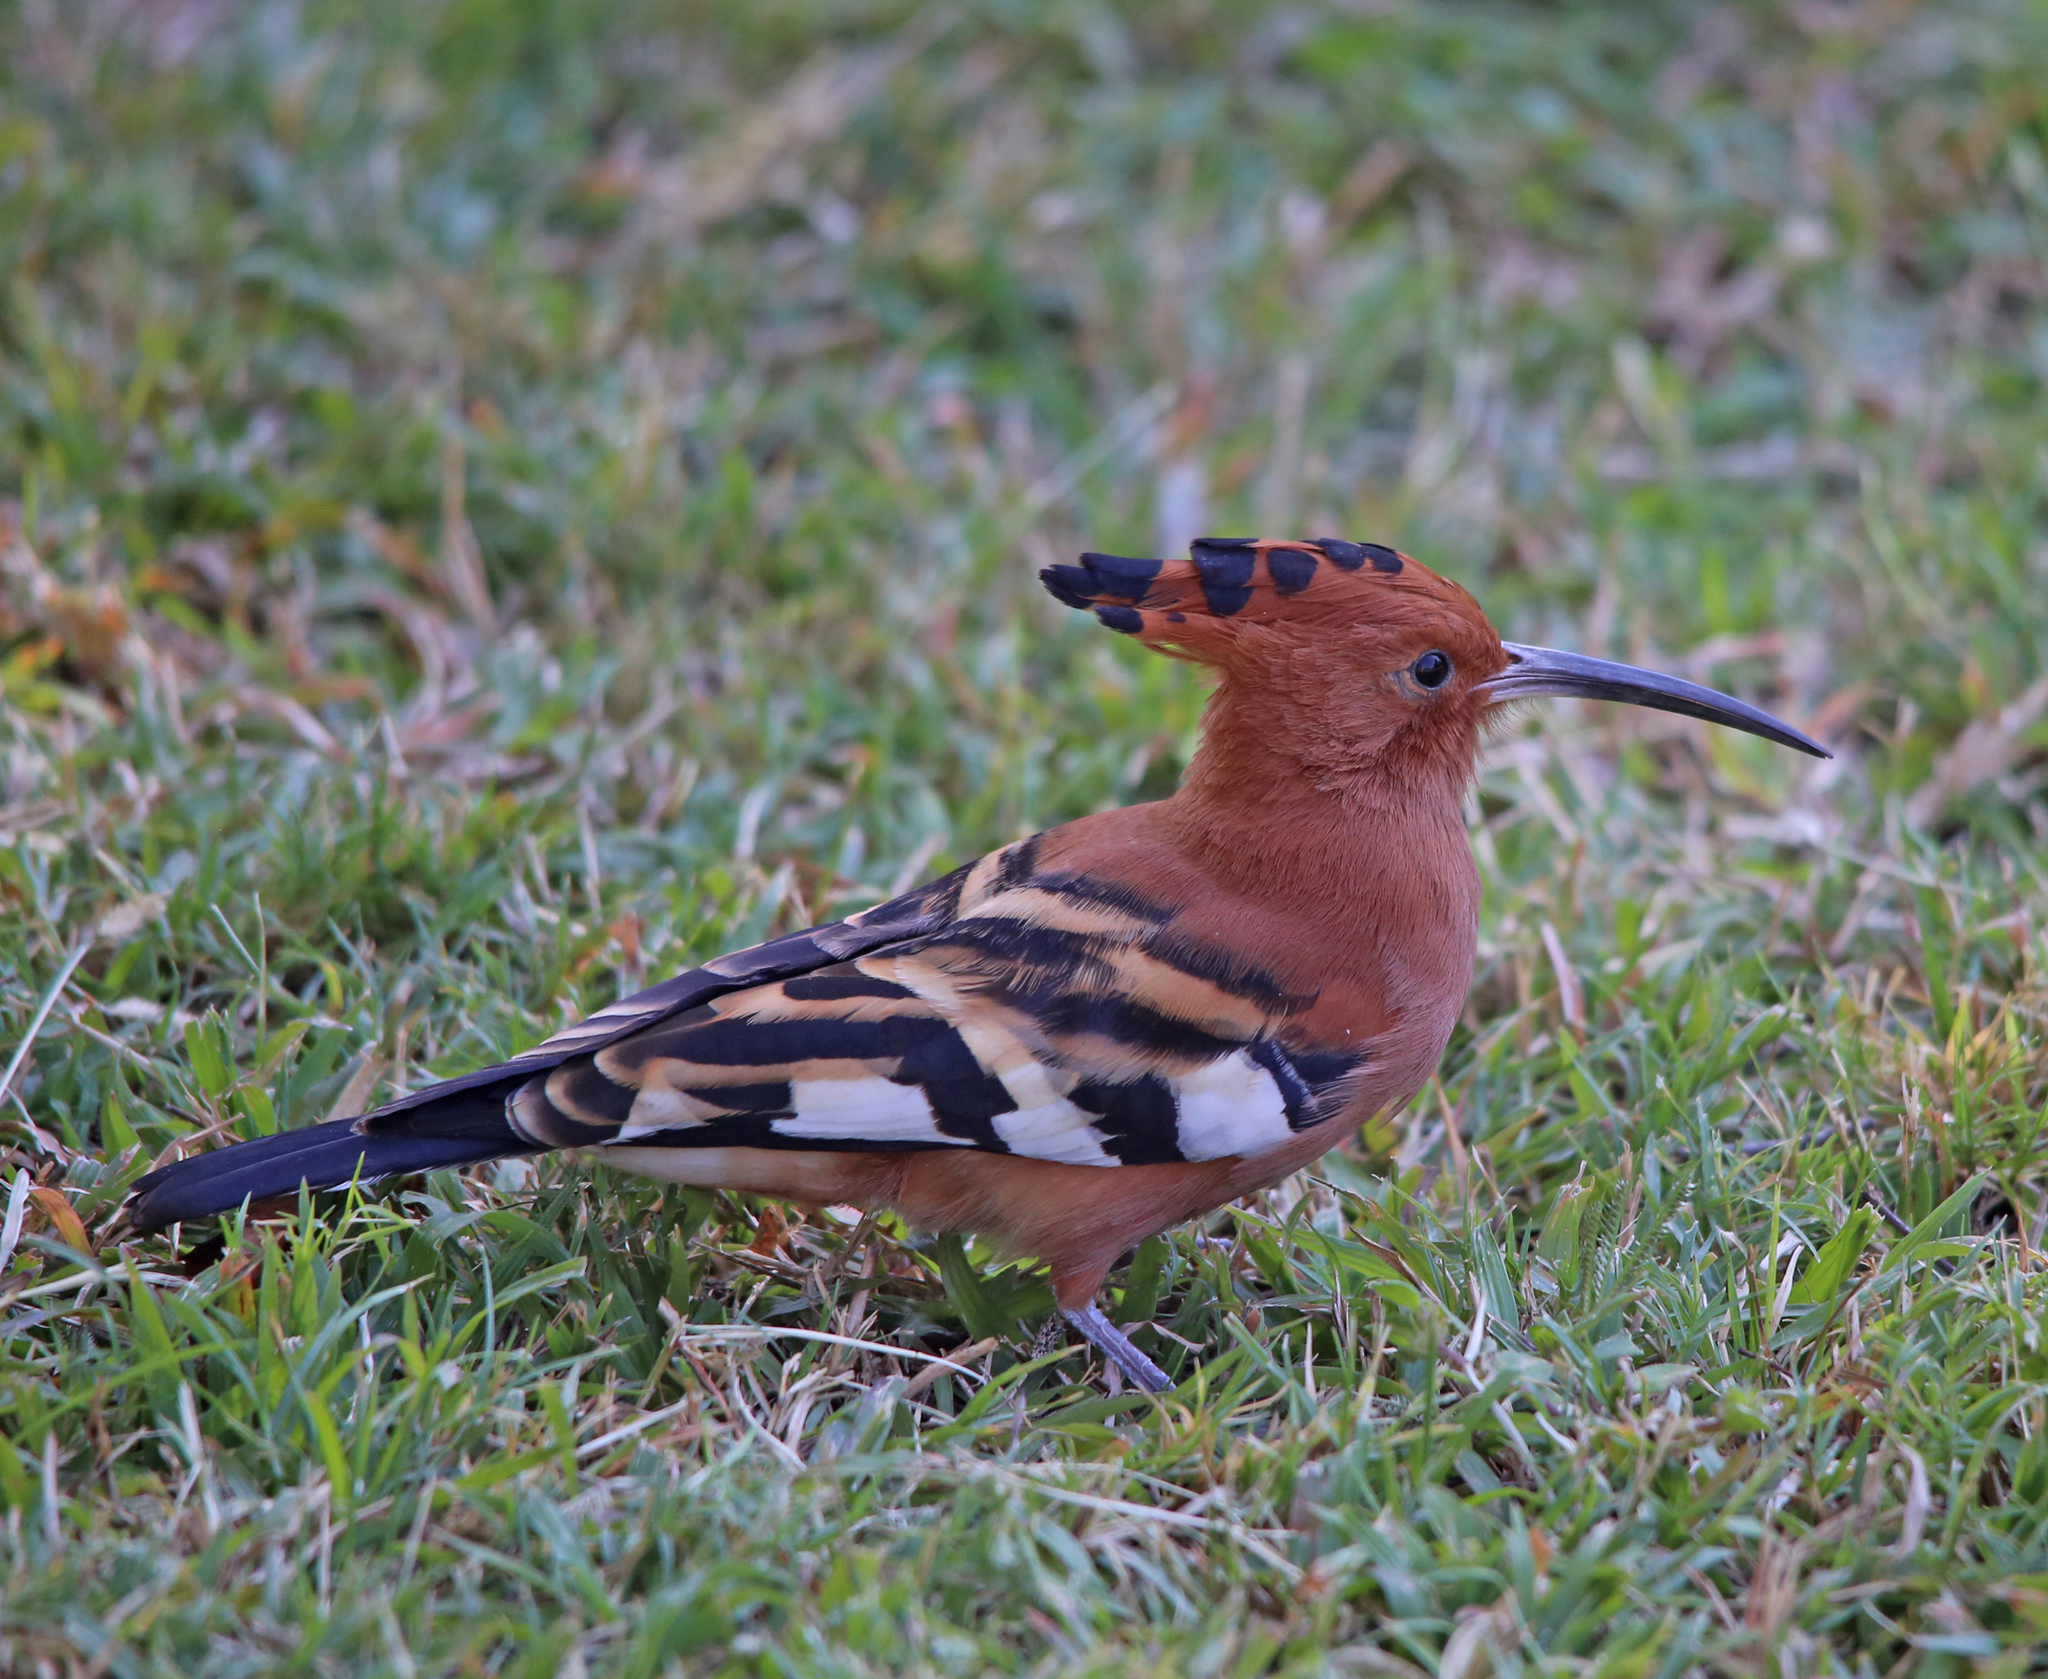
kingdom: Animalia
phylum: Chordata
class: Aves
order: Bucerotiformes
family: Upupidae
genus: Upupa
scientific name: Upupa africana
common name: African hoopoe
